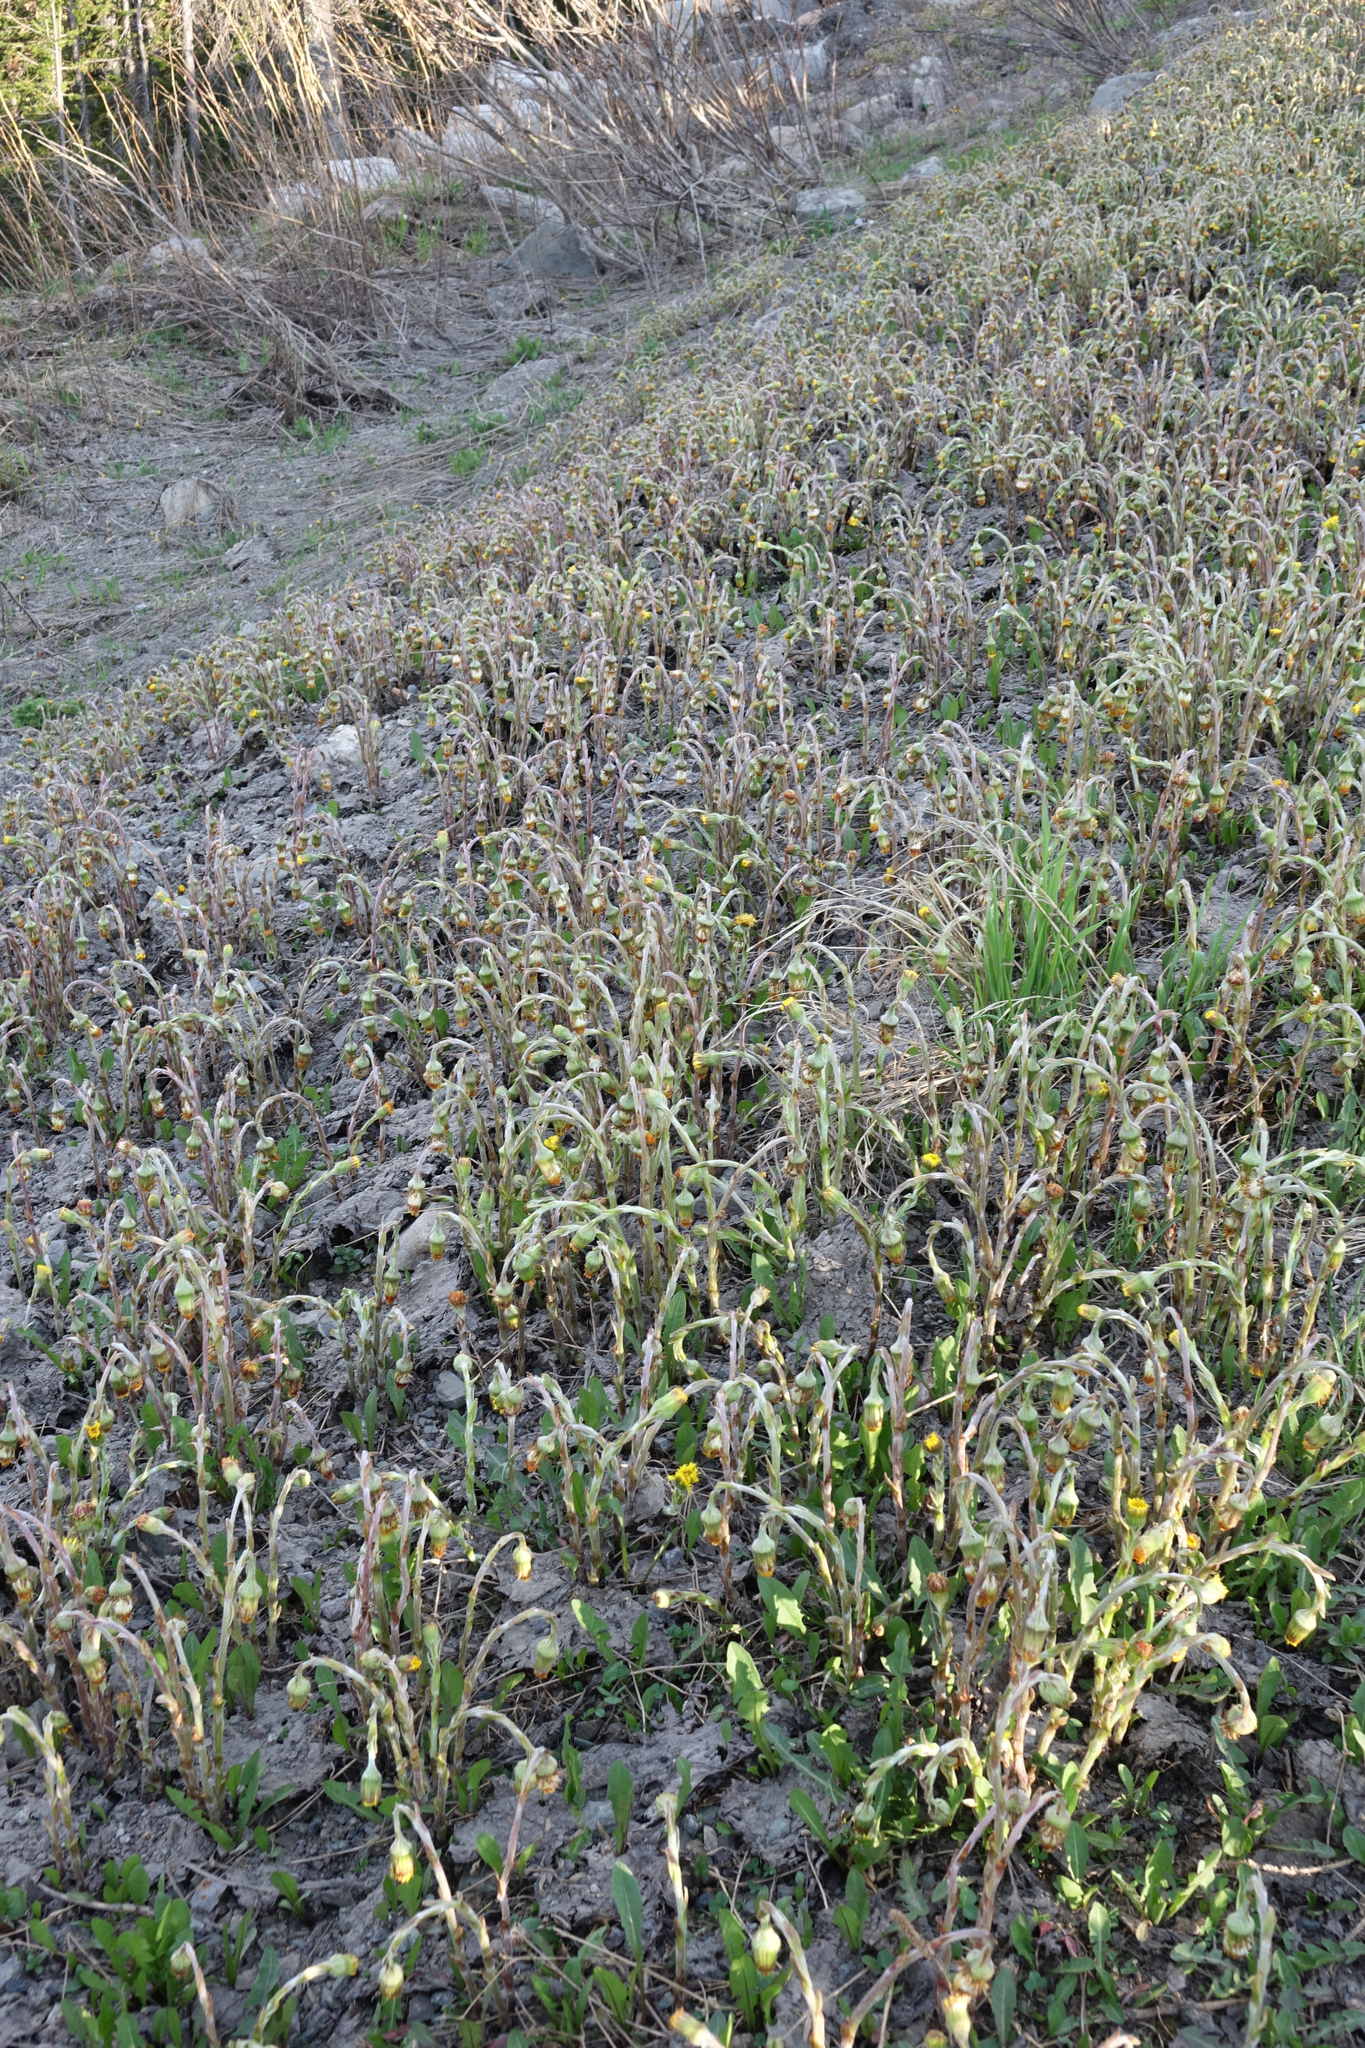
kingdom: Plantae
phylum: Tracheophyta
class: Magnoliopsida
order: Asterales
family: Asteraceae
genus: Tussilago
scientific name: Tussilago farfara
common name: Coltsfoot
